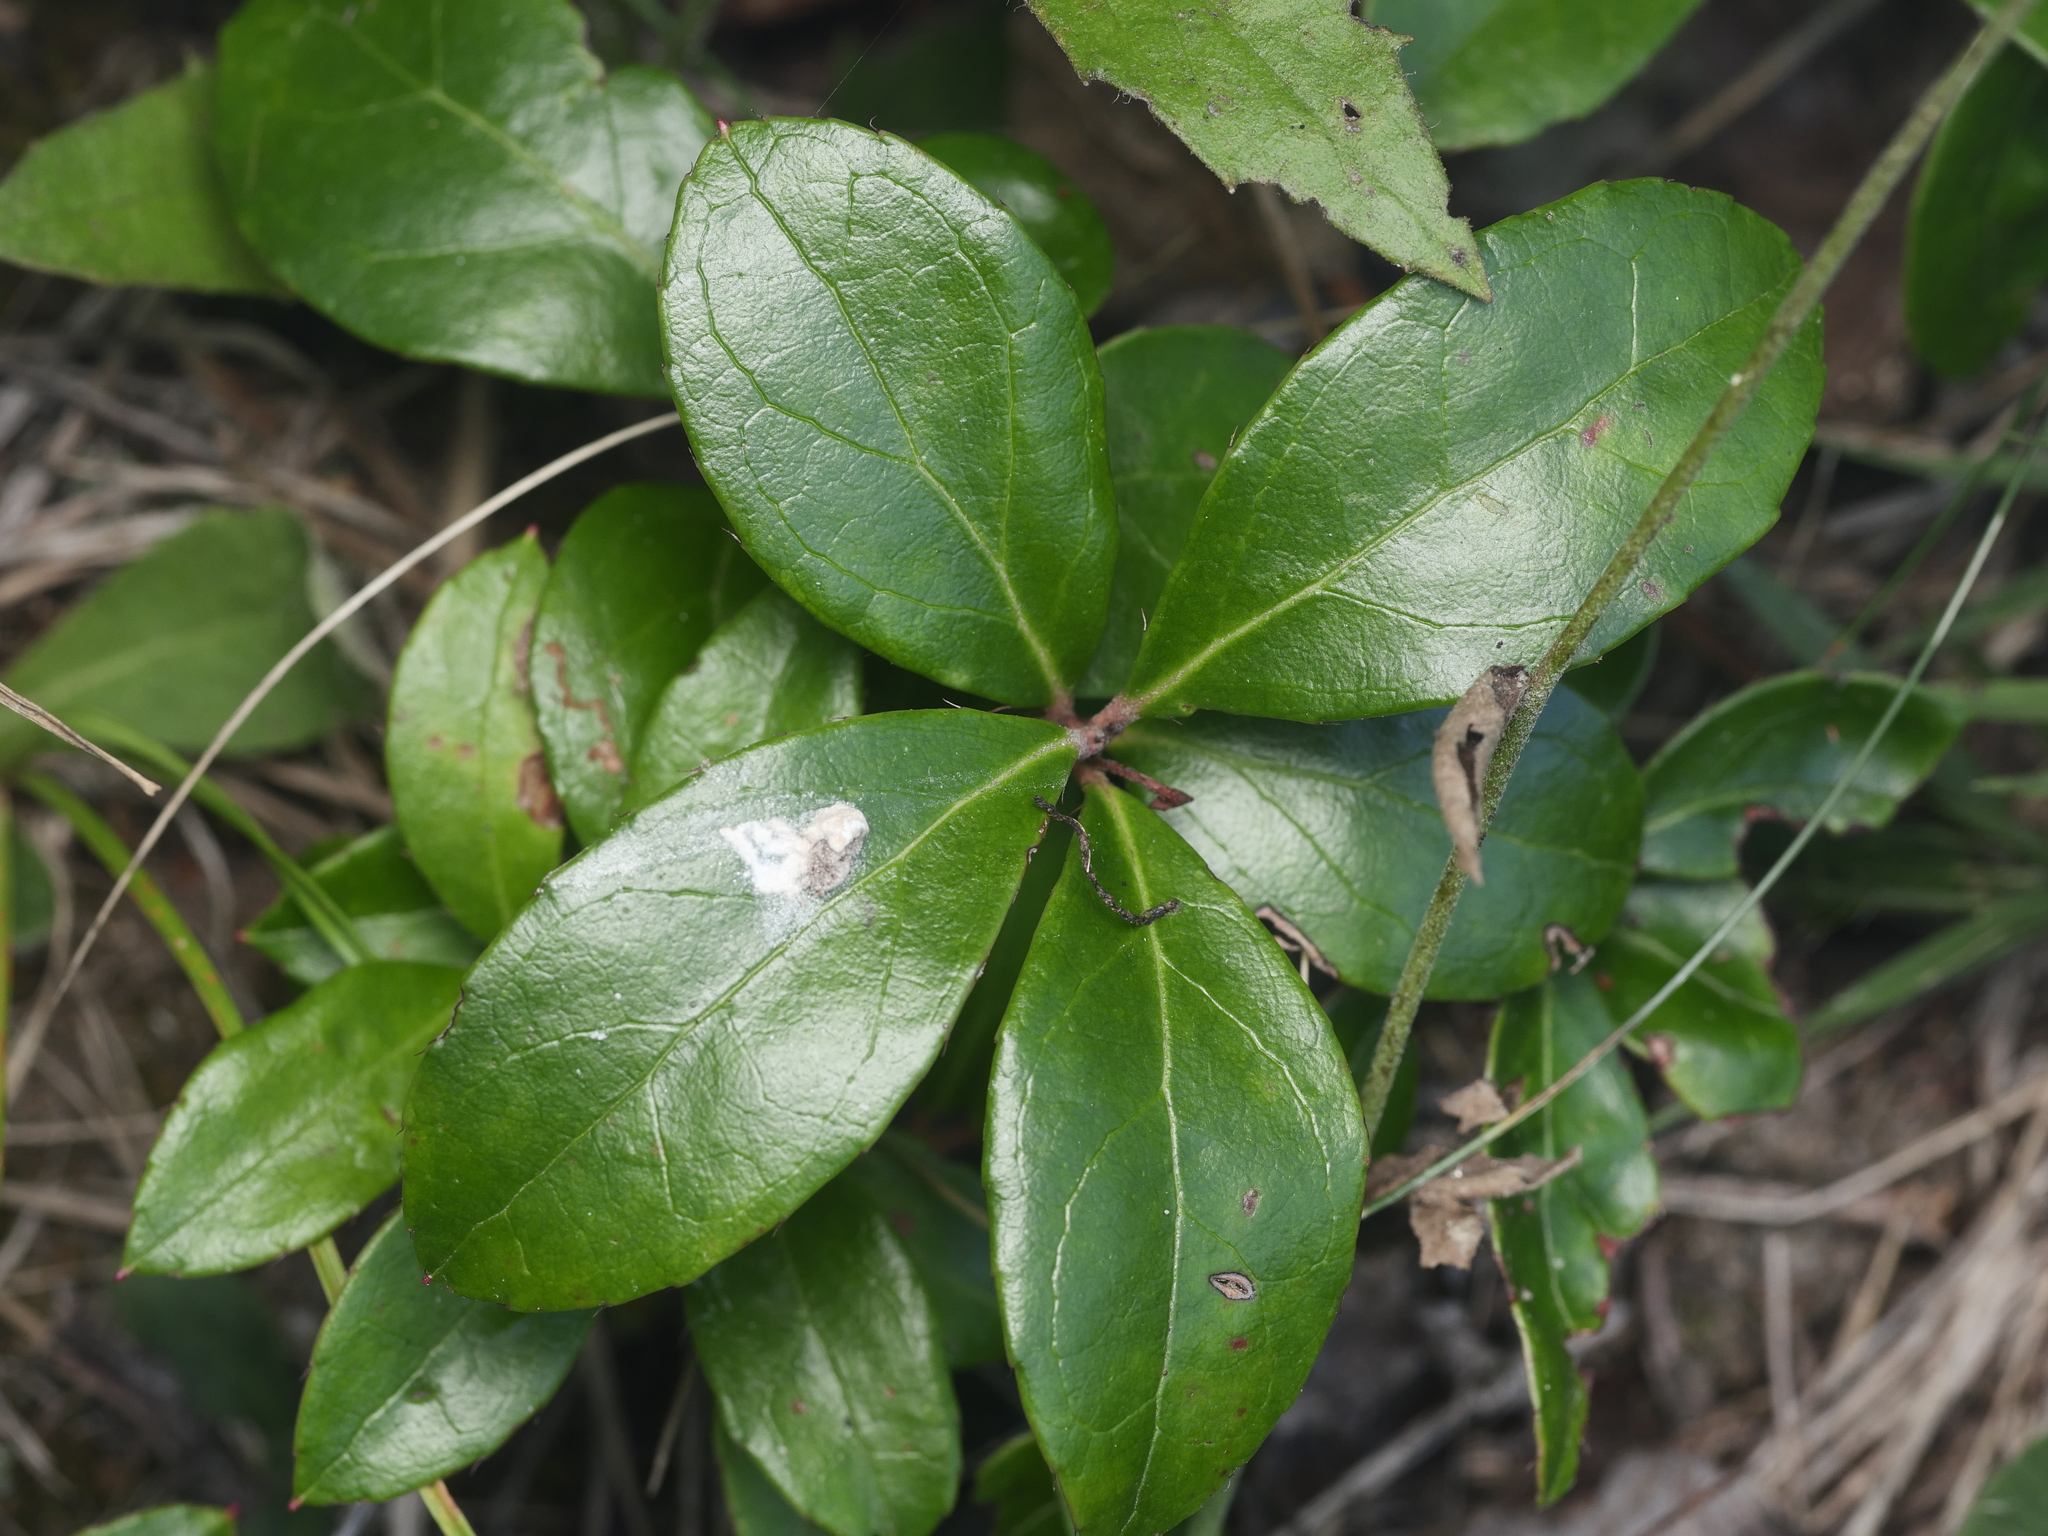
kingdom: Plantae
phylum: Tracheophyta
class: Magnoliopsida
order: Ericales
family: Ericaceae
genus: Gaultheria
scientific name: Gaultheria procumbens
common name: Checkerberry
